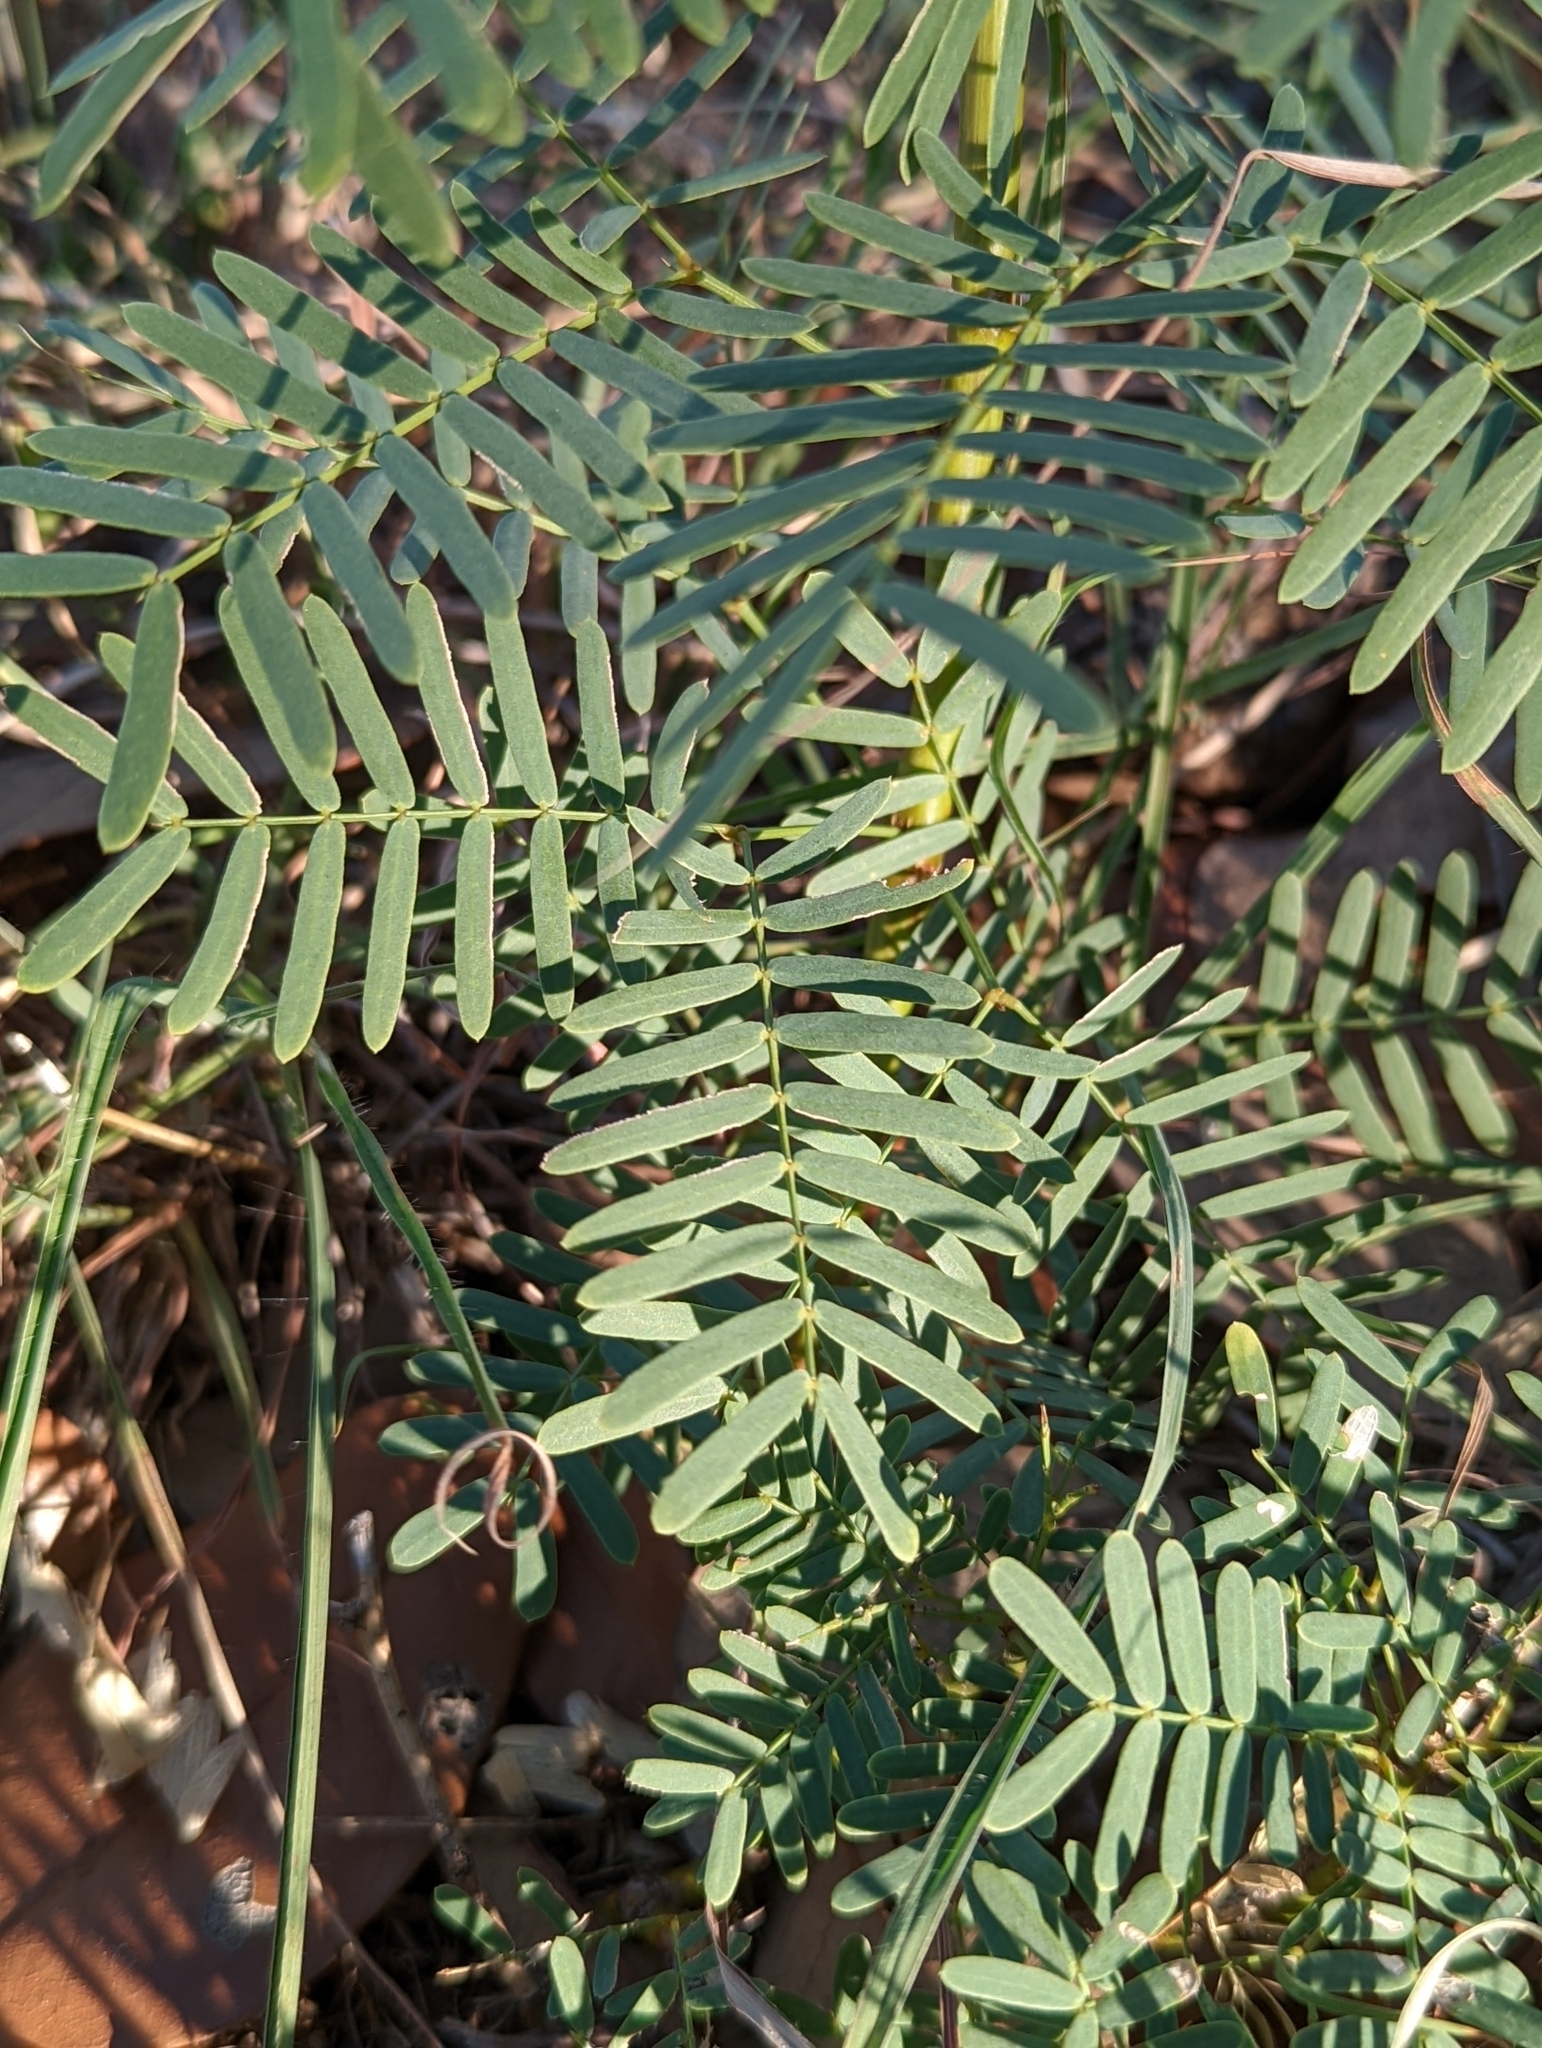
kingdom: Plantae
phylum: Tracheophyta
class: Magnoliopsida
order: Fabales
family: Fabaceae
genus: Prosopis
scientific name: Prosopis glandulosa
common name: Honey mesquite
